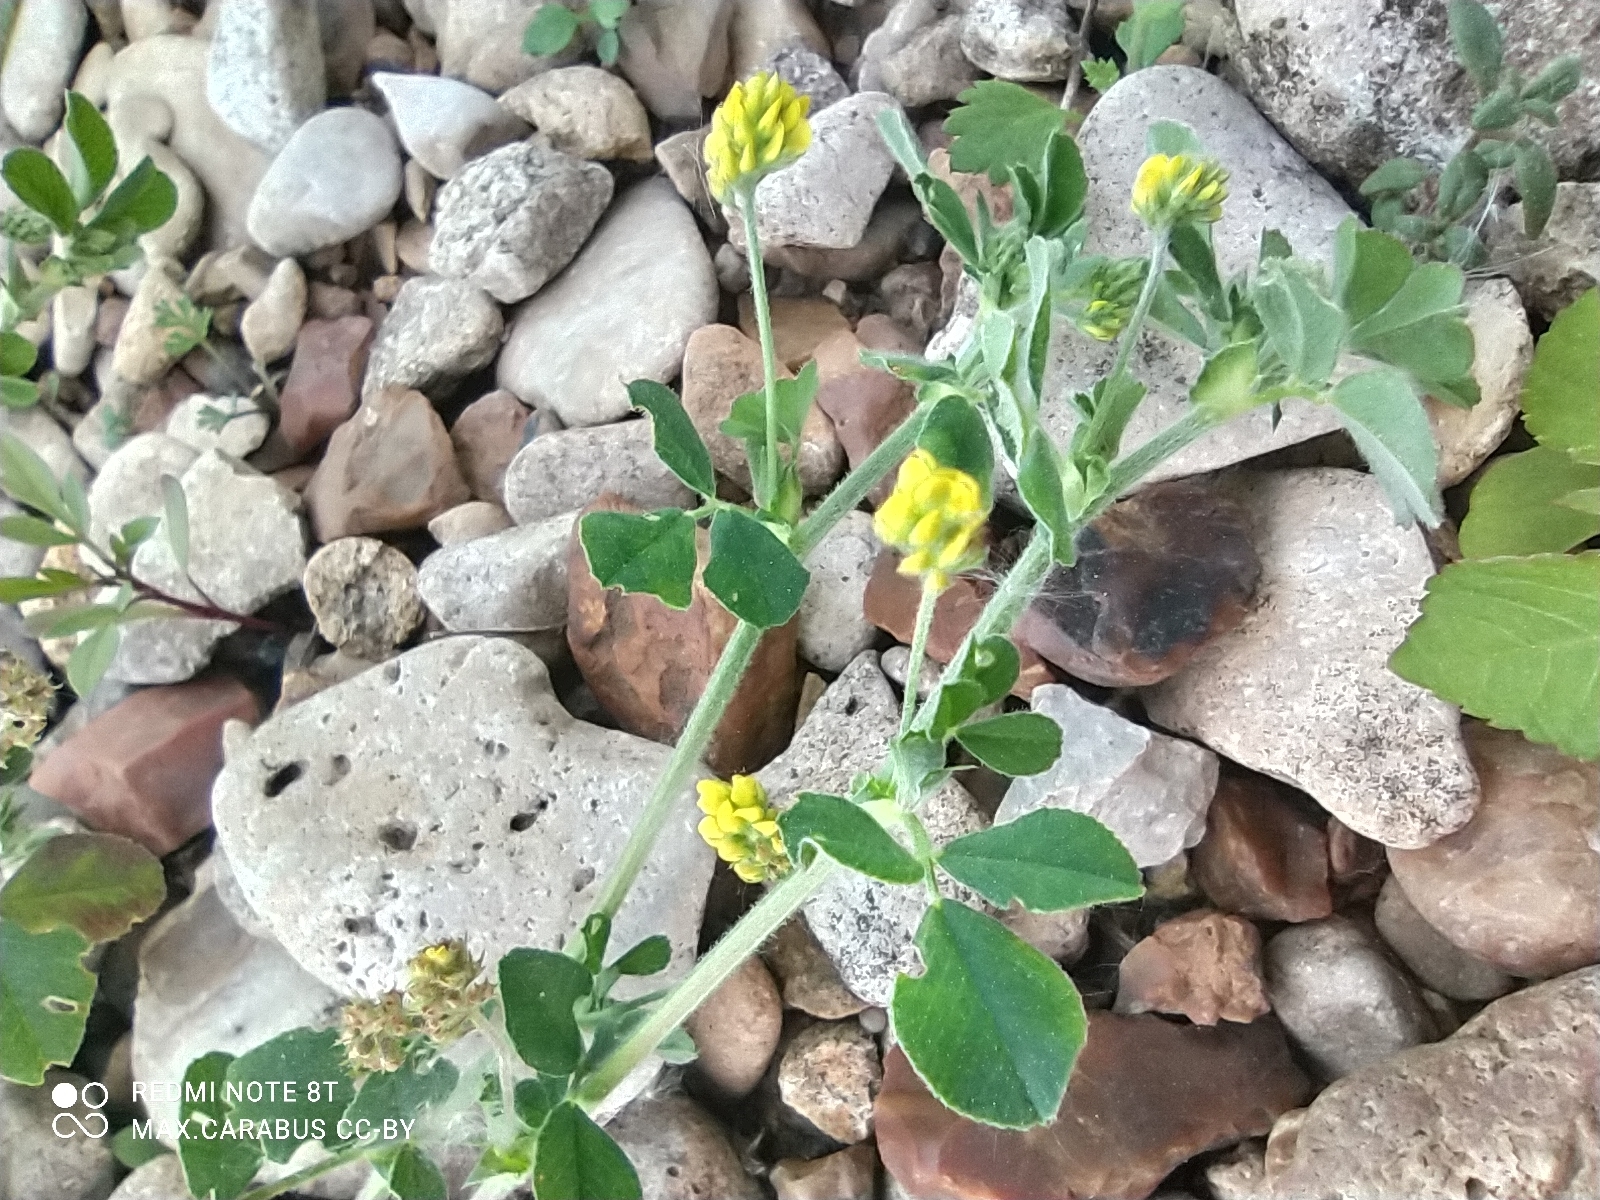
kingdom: Plantae
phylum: Tracheophyta
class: Magnoliopsida
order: Fabales
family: Fabaceae
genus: Medicago
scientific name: Medicago lupulina
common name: Black medick
